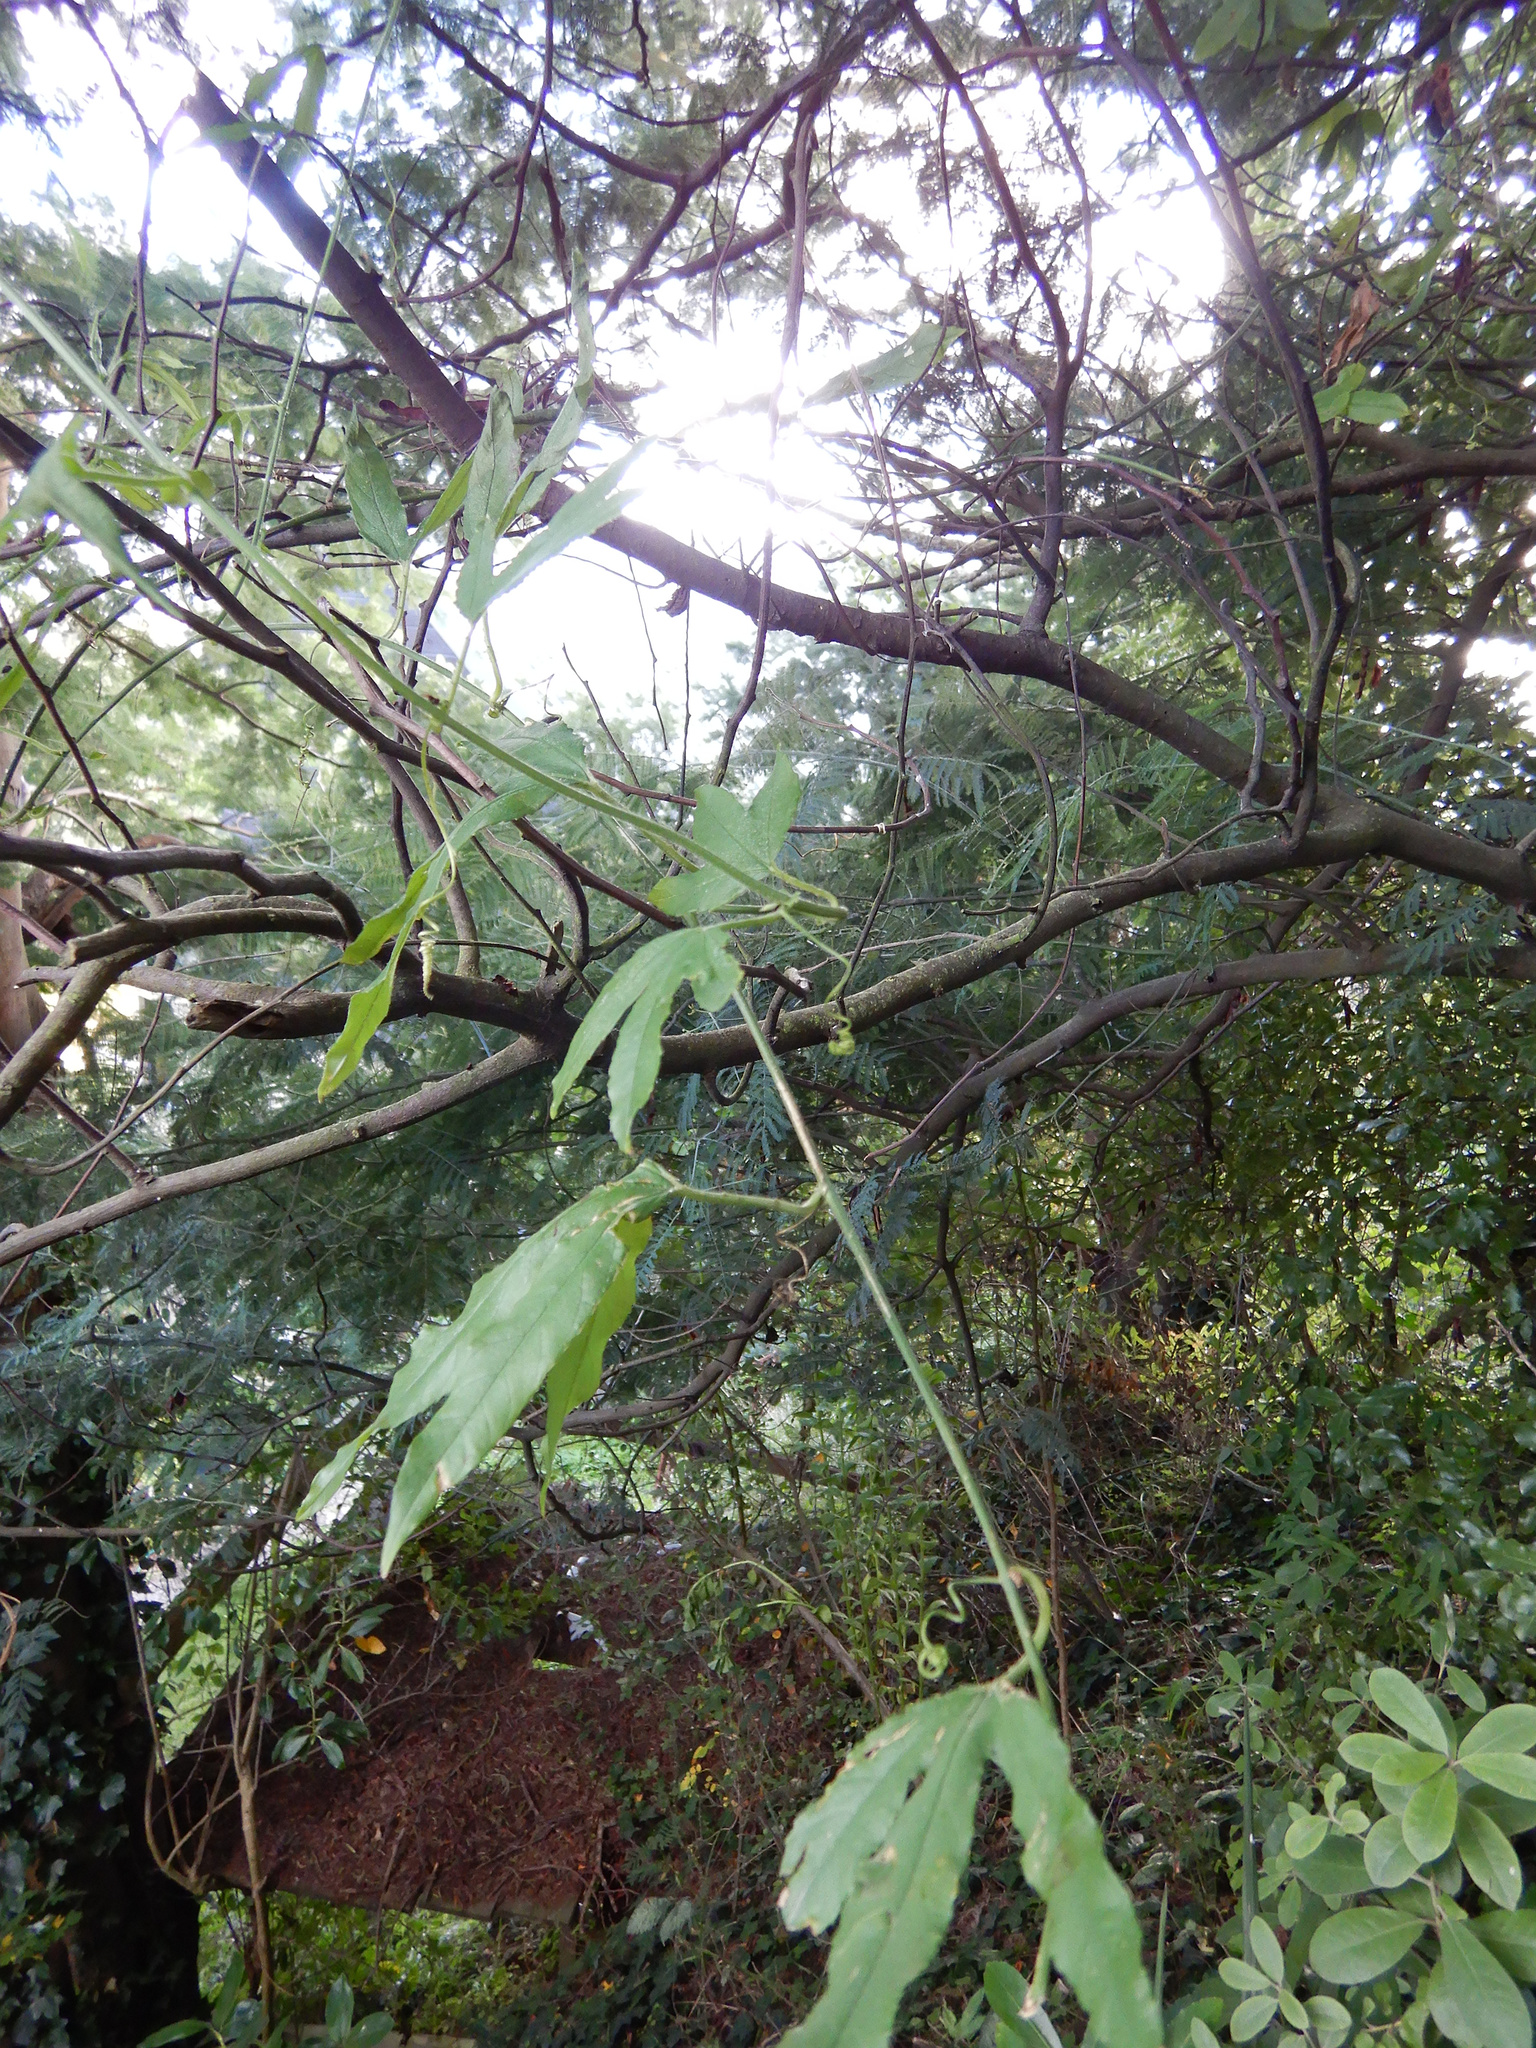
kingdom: Plantae
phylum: Tracheophyta
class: Magnoliopsida
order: Malpighiales
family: Passifloraceae
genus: Passiflora
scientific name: Passiflora tripartita
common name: Banana poka
